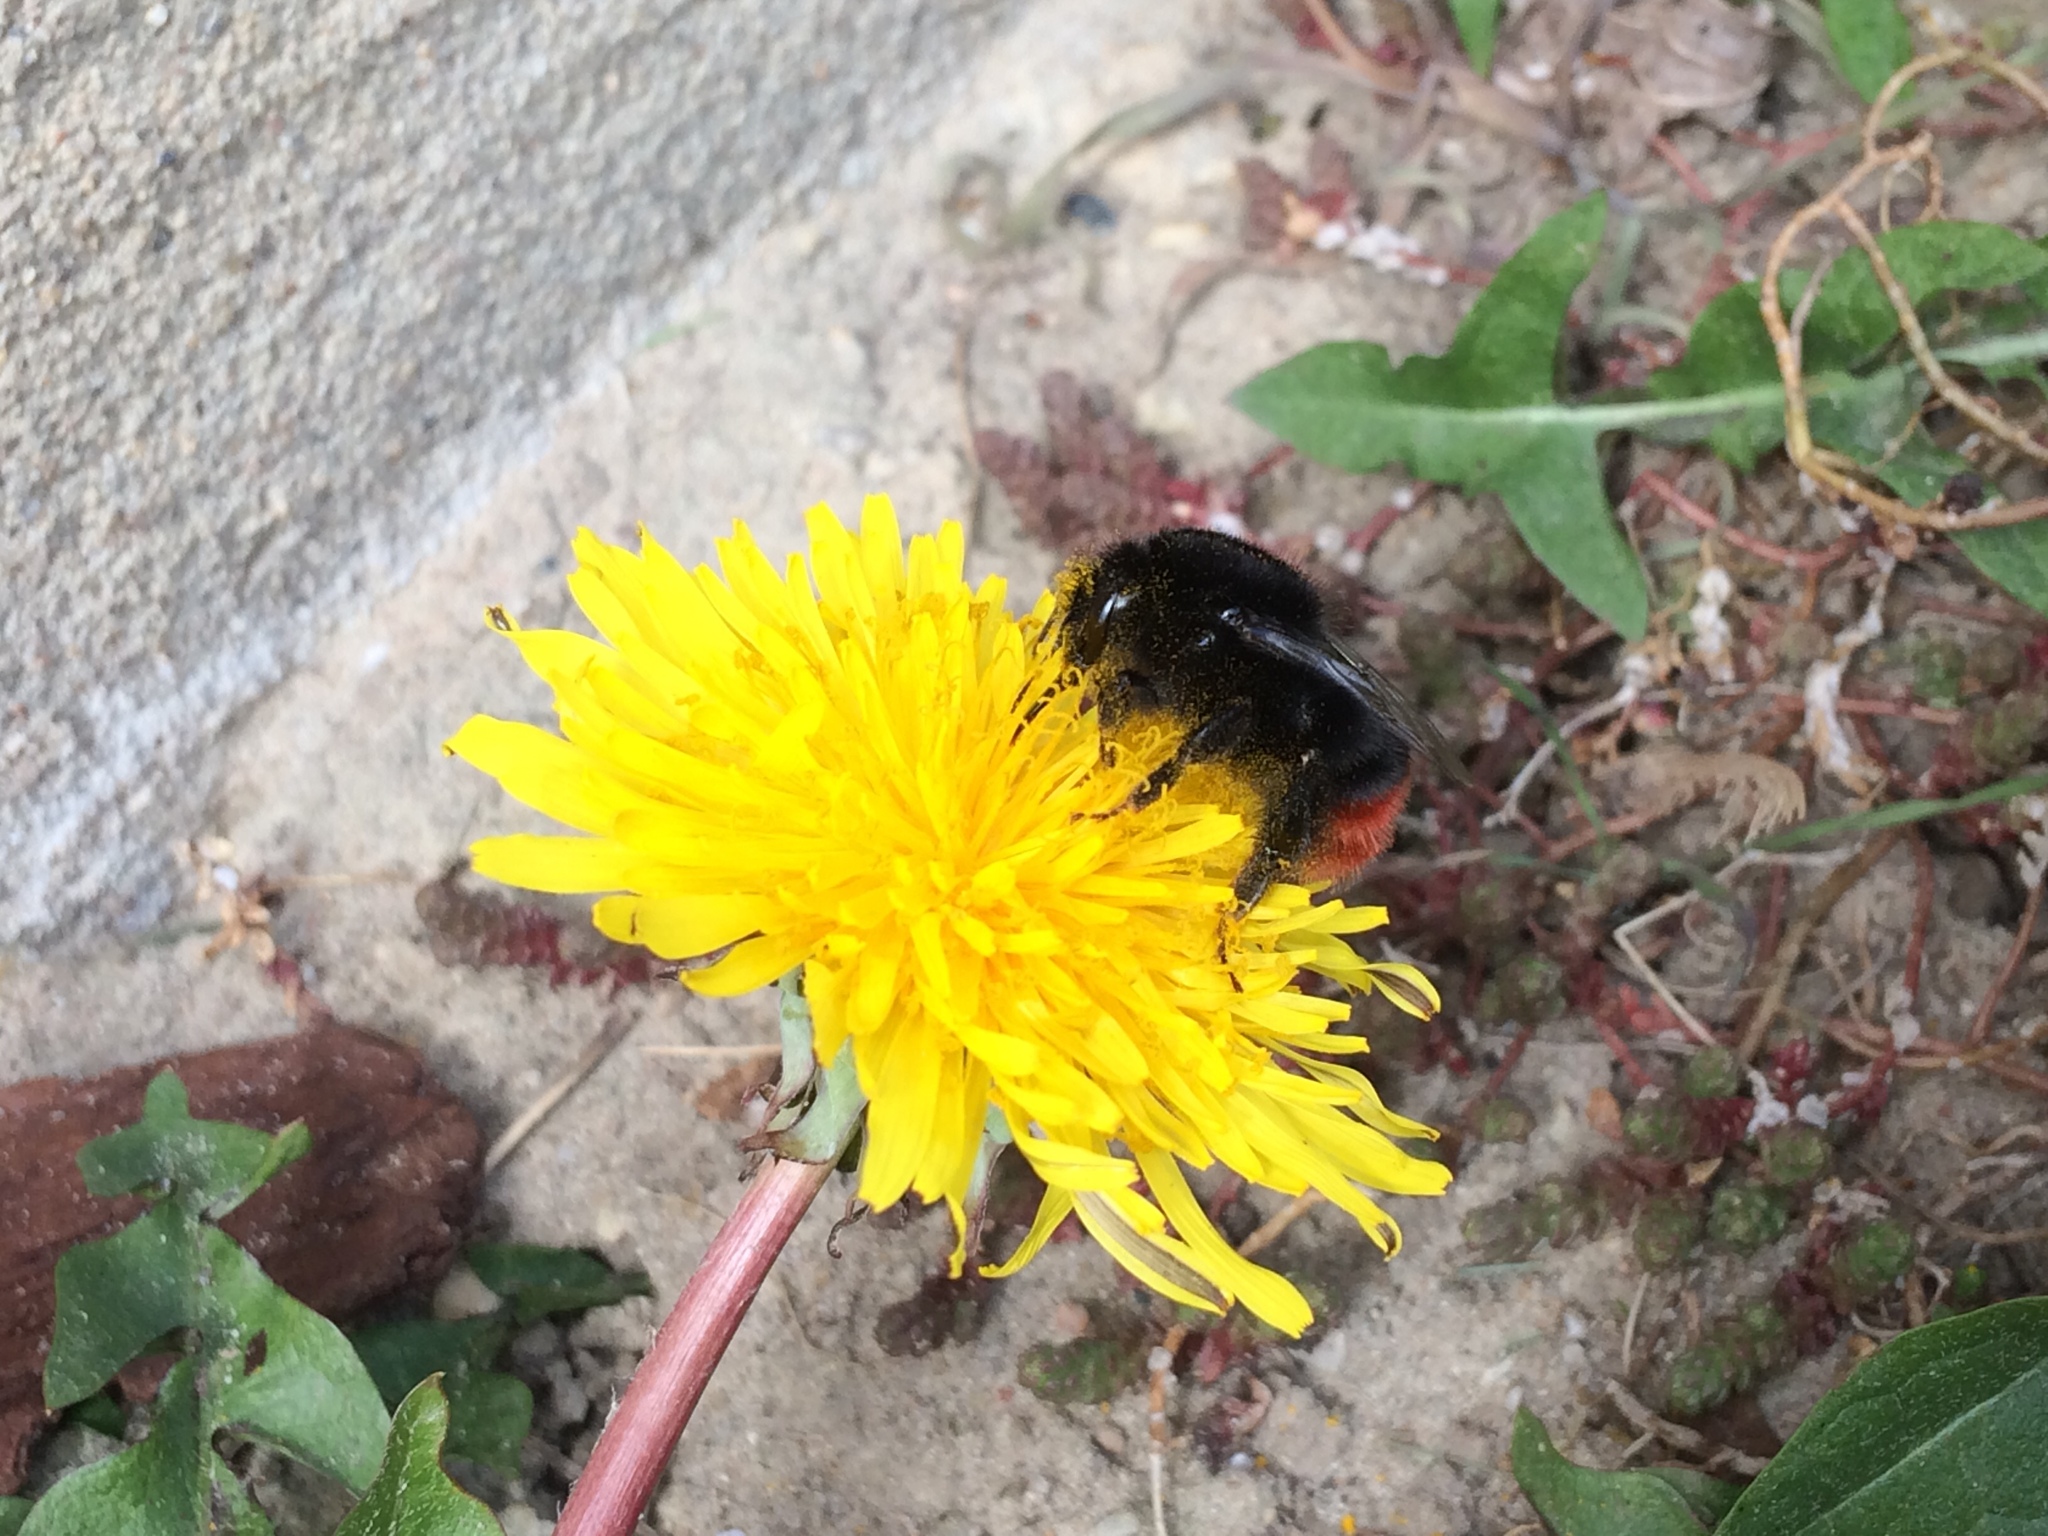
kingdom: Animalia
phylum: Arthropoda
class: Insecta
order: Hymenoptera
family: Apidae
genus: Bombus
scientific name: Bombus lapidarius
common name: Large red-tailed humble-bee
